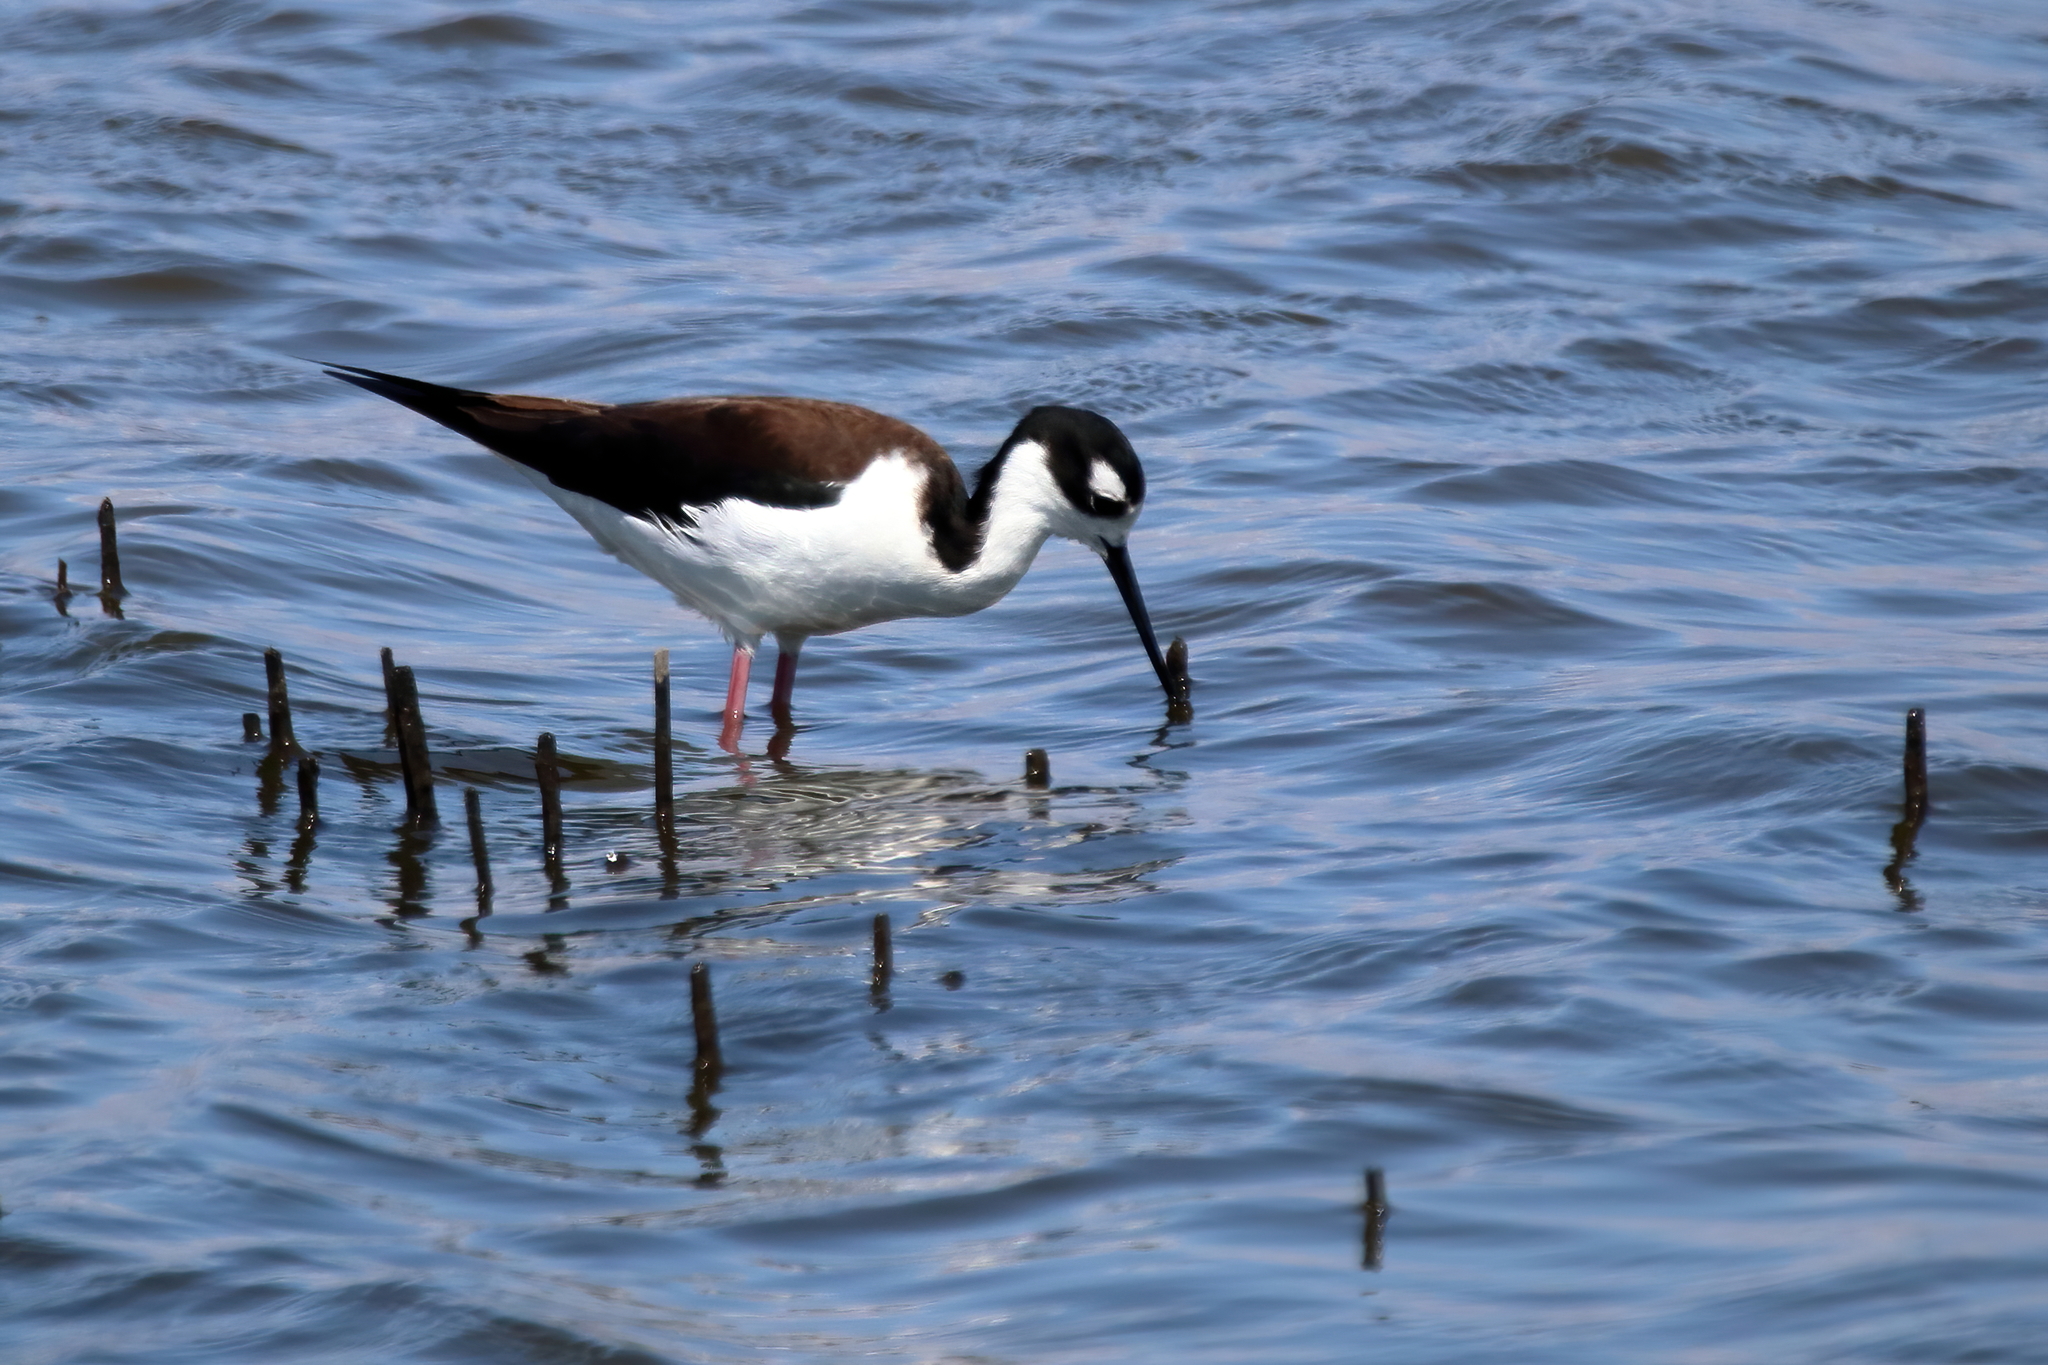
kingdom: Animalia
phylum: Chordata
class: Aves
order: Charadriiformes
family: Recurvirostridae
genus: Himantopus
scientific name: Himantopus mexicanus
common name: Black-necked stilt
